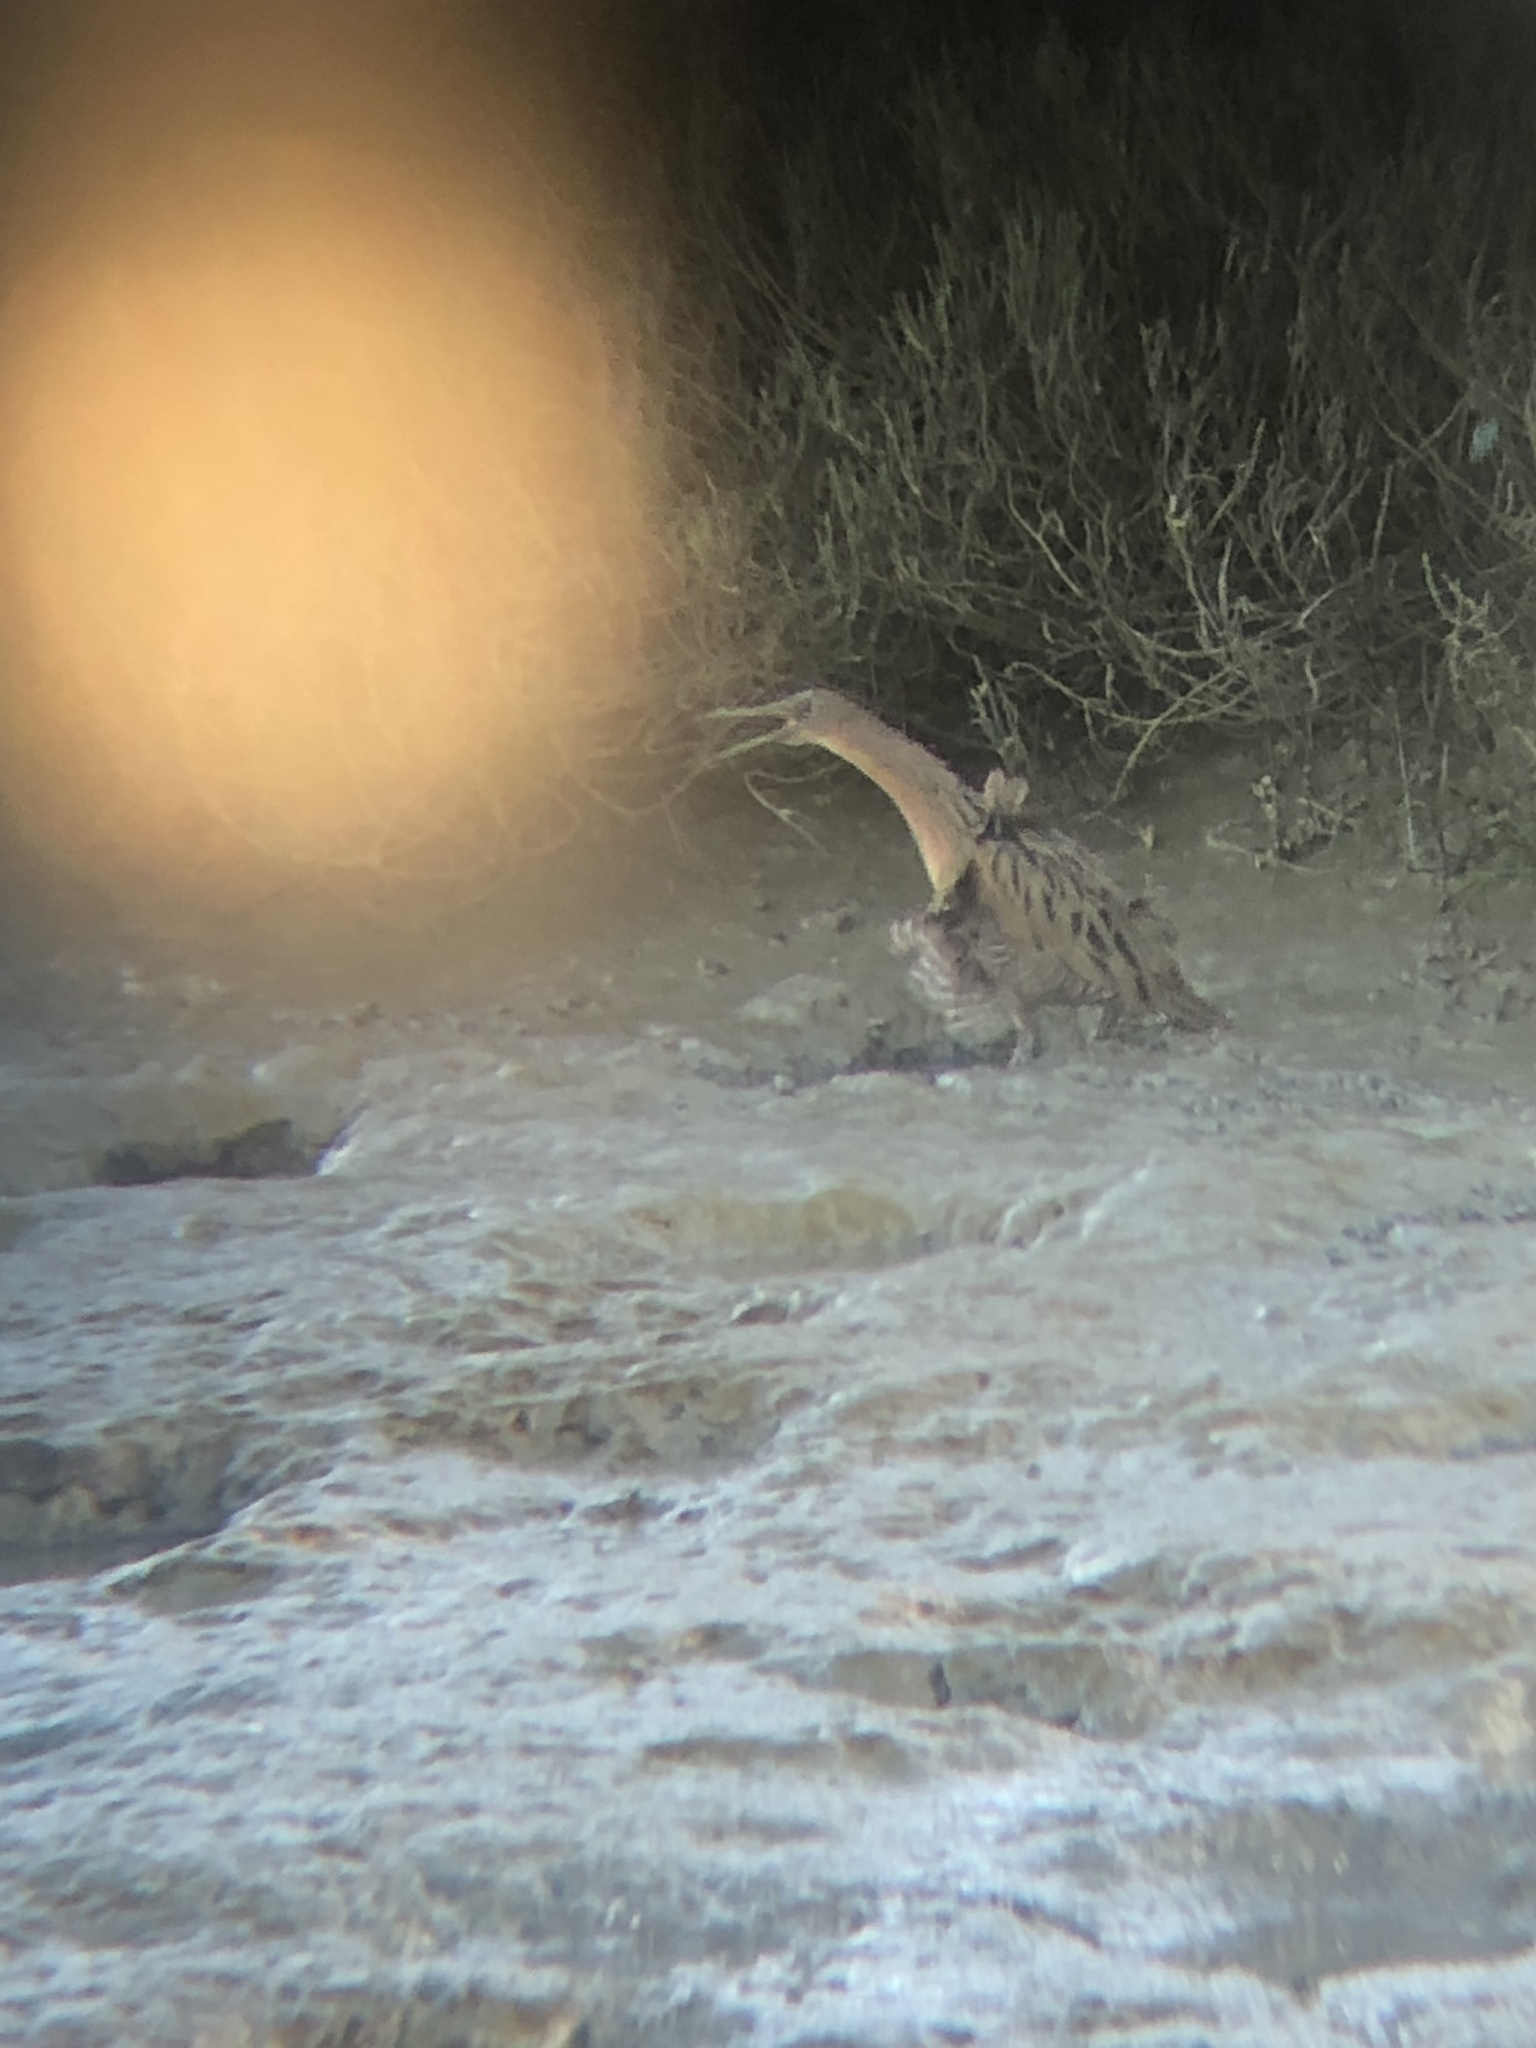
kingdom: Animalia
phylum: Chordata
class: Aves
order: Gruiformes
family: Rallidae
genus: Rallus
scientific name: Rallus obsoletus
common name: Ridgway's rail
